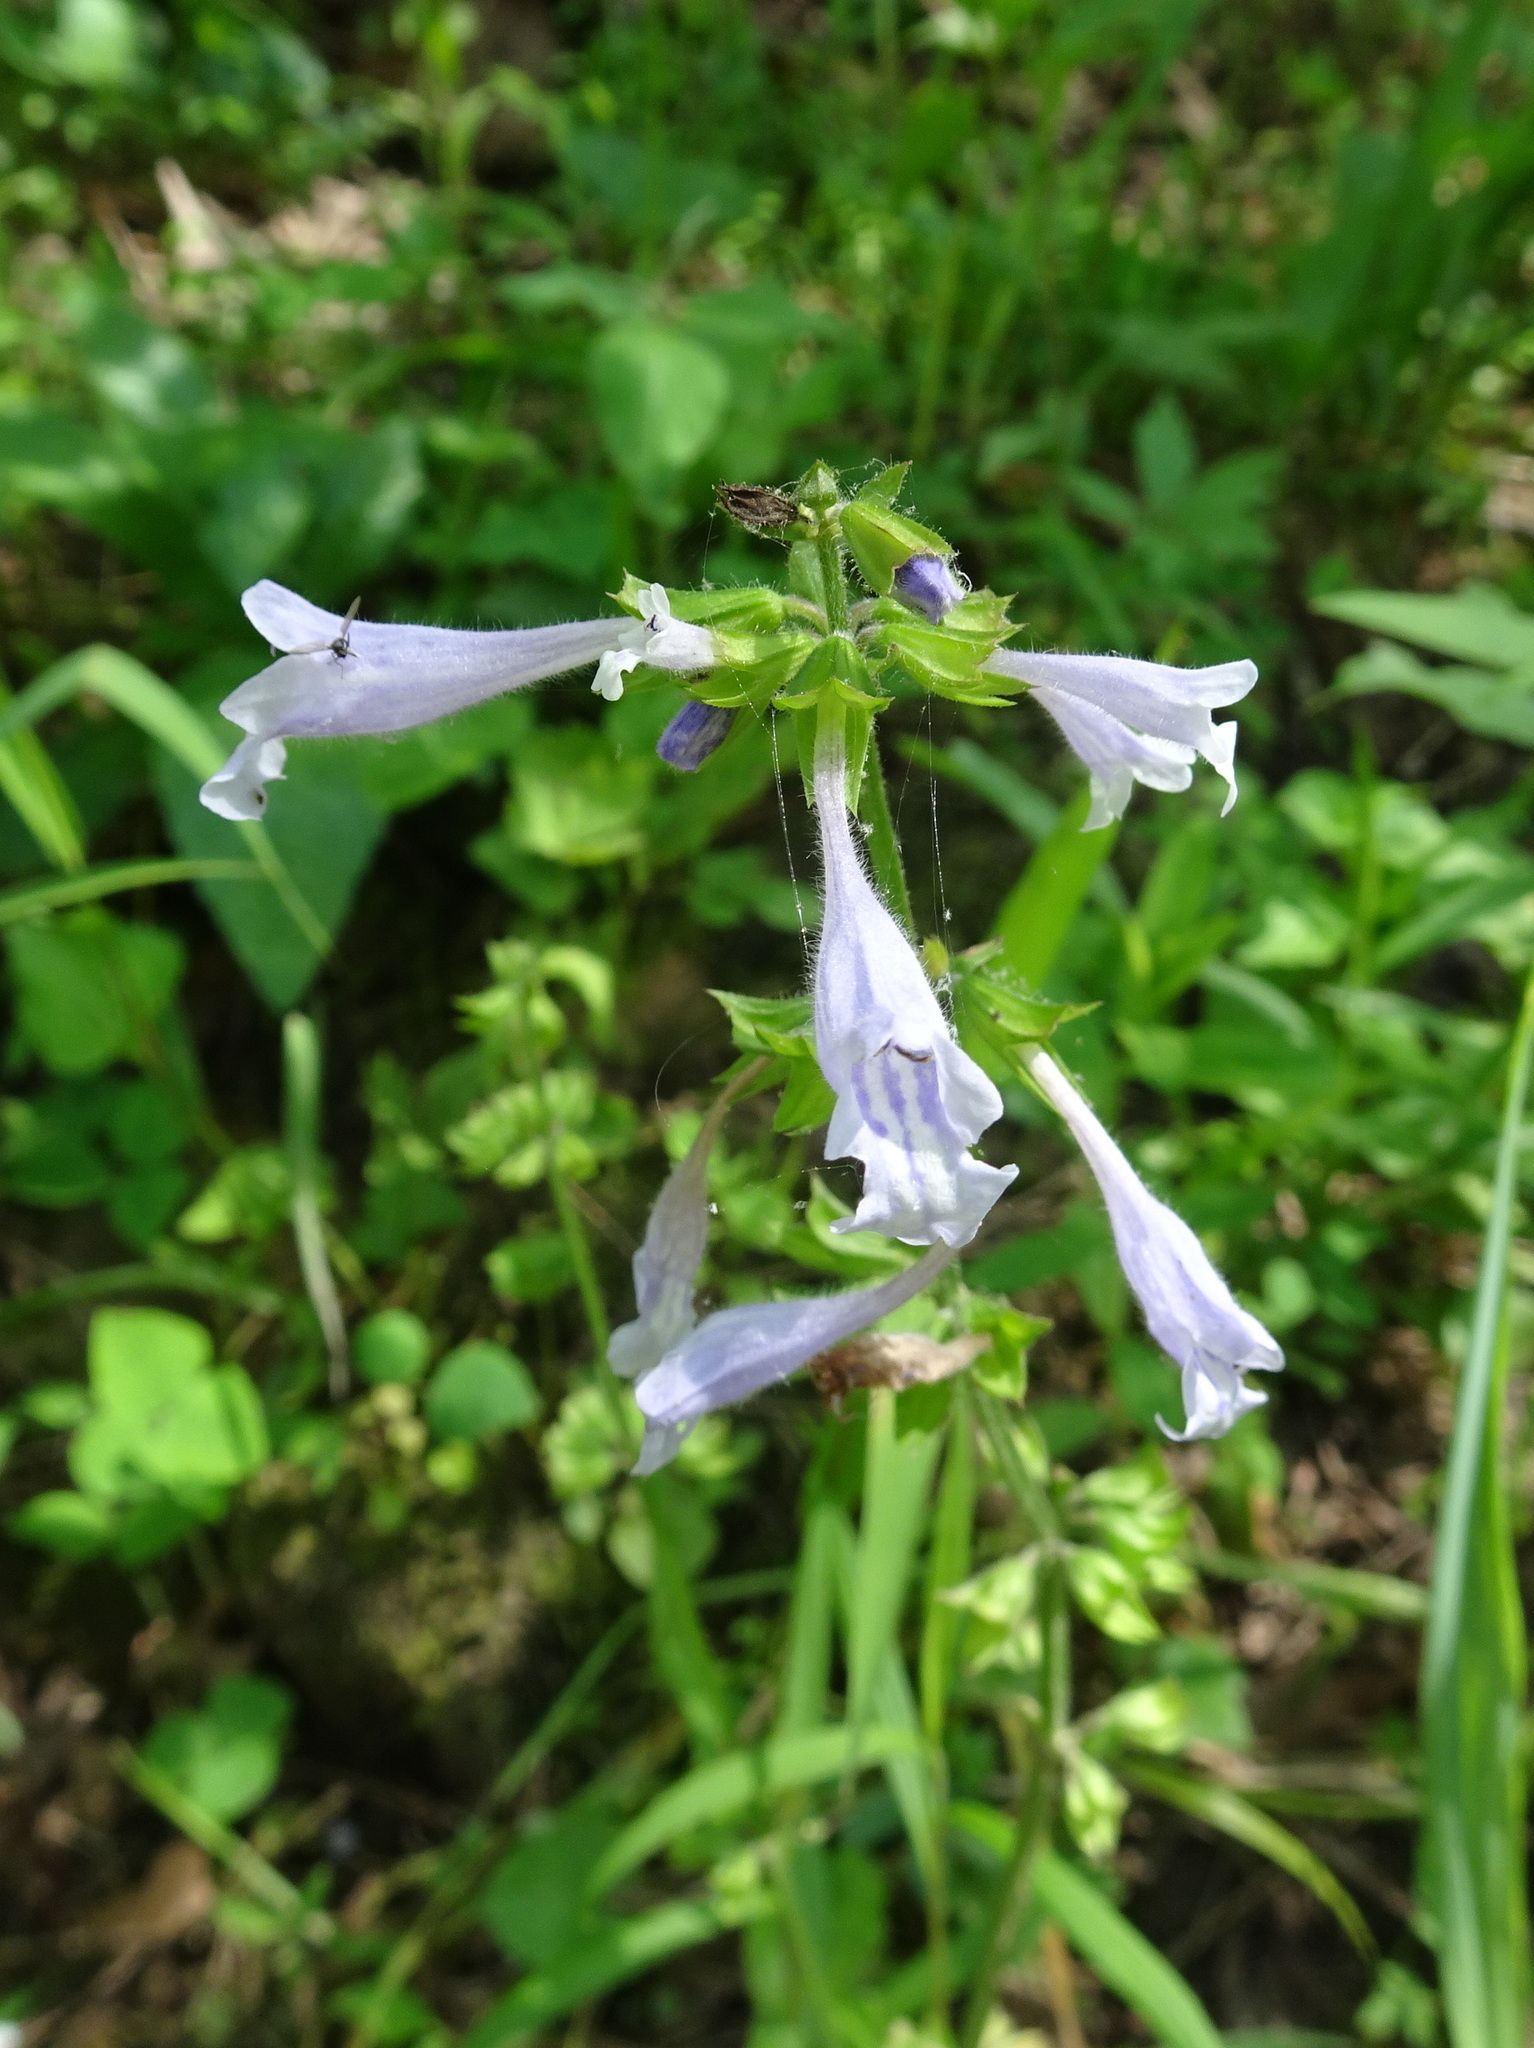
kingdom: Plantae
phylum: Tracheophyta
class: Magnoliopsida
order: Lamiales
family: Lamiaceae
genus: Salvia
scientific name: Salvia lyrata
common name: Cancerweed
